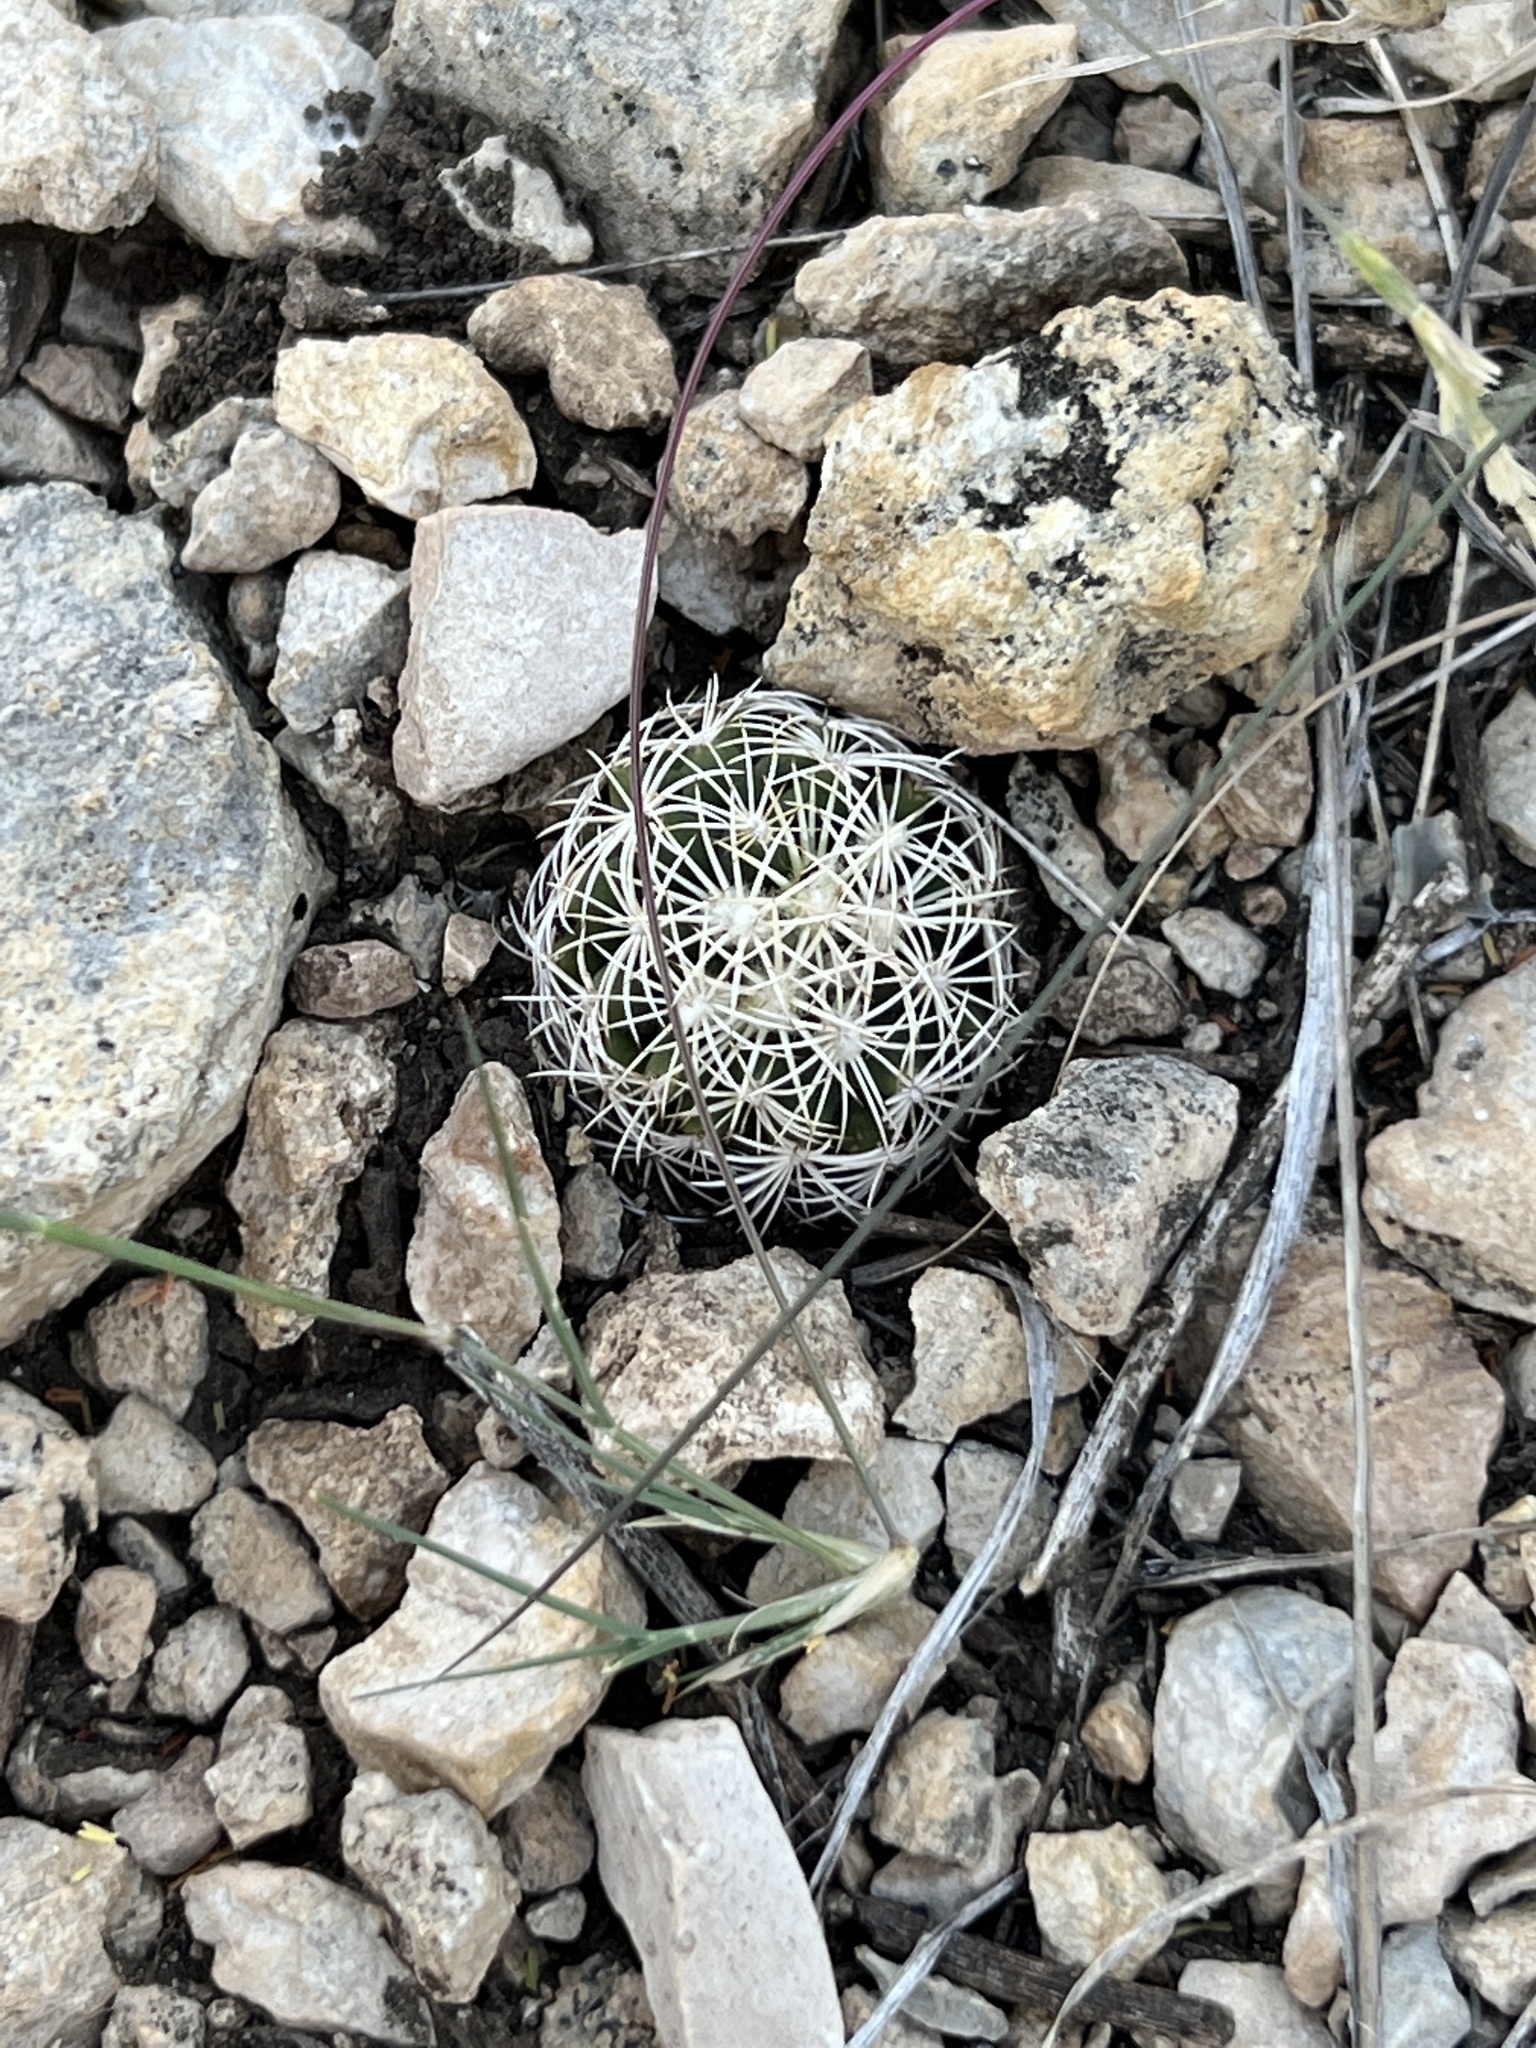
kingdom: Plantae
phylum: Tracheophyta
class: Magnoliopsida
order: Caryophyllales
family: Cactaceae
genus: Coryphantha
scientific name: Coryphantha echinus
